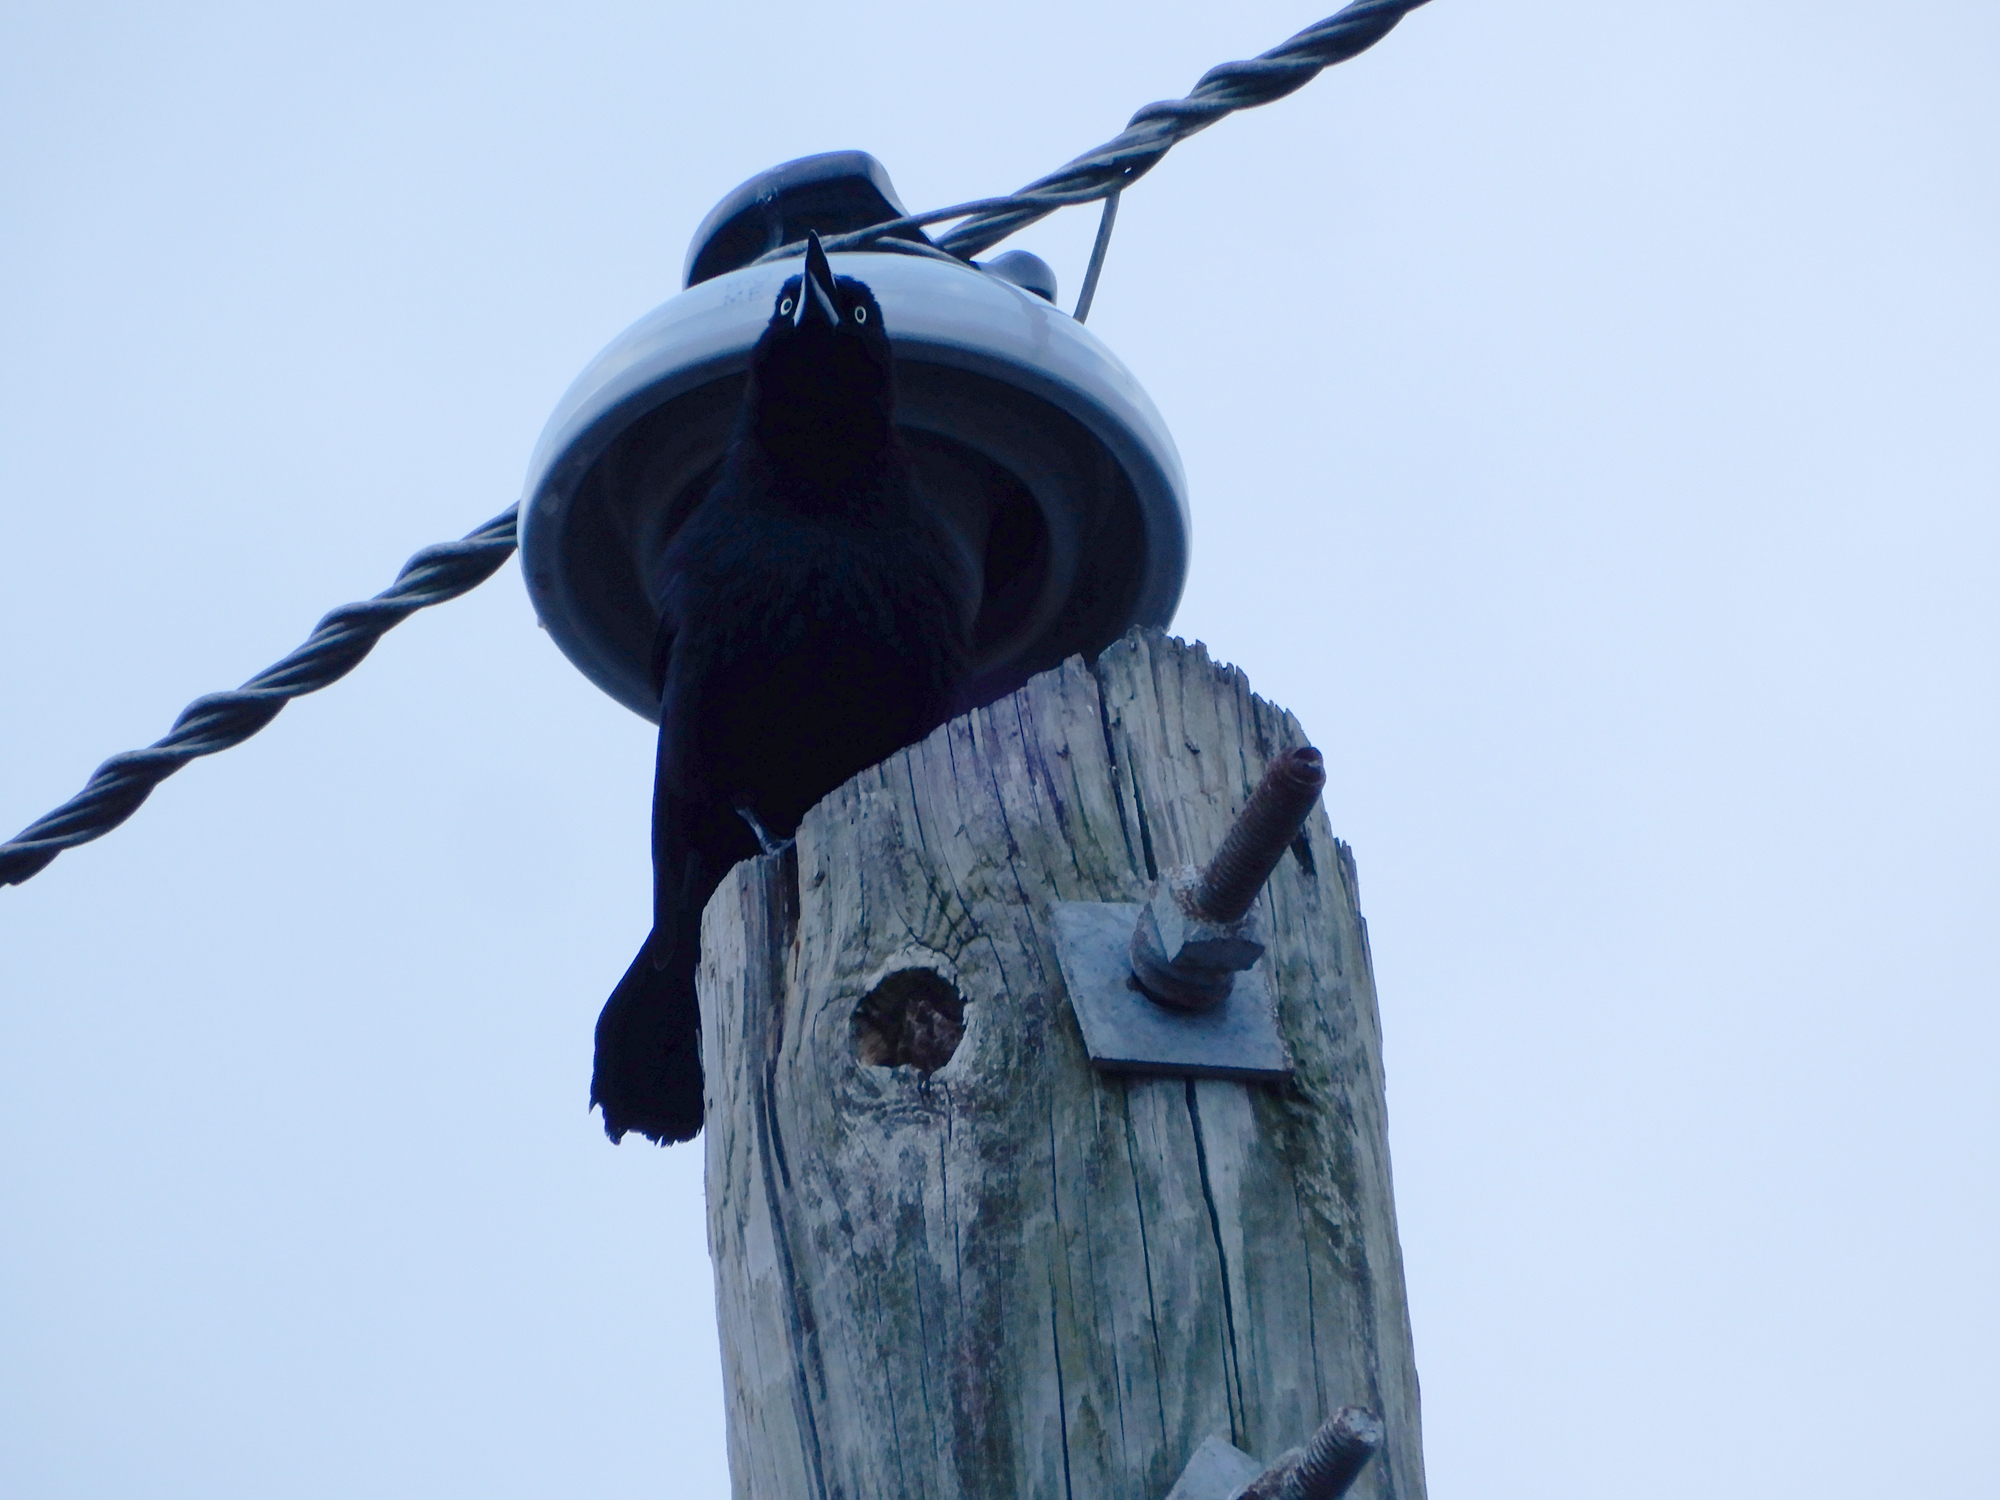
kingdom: Animalia
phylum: Chordata
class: Aves
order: Passeriformes
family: Icteridae
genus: Quiscalus
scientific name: Quiscalus quiscula
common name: Common grackle
